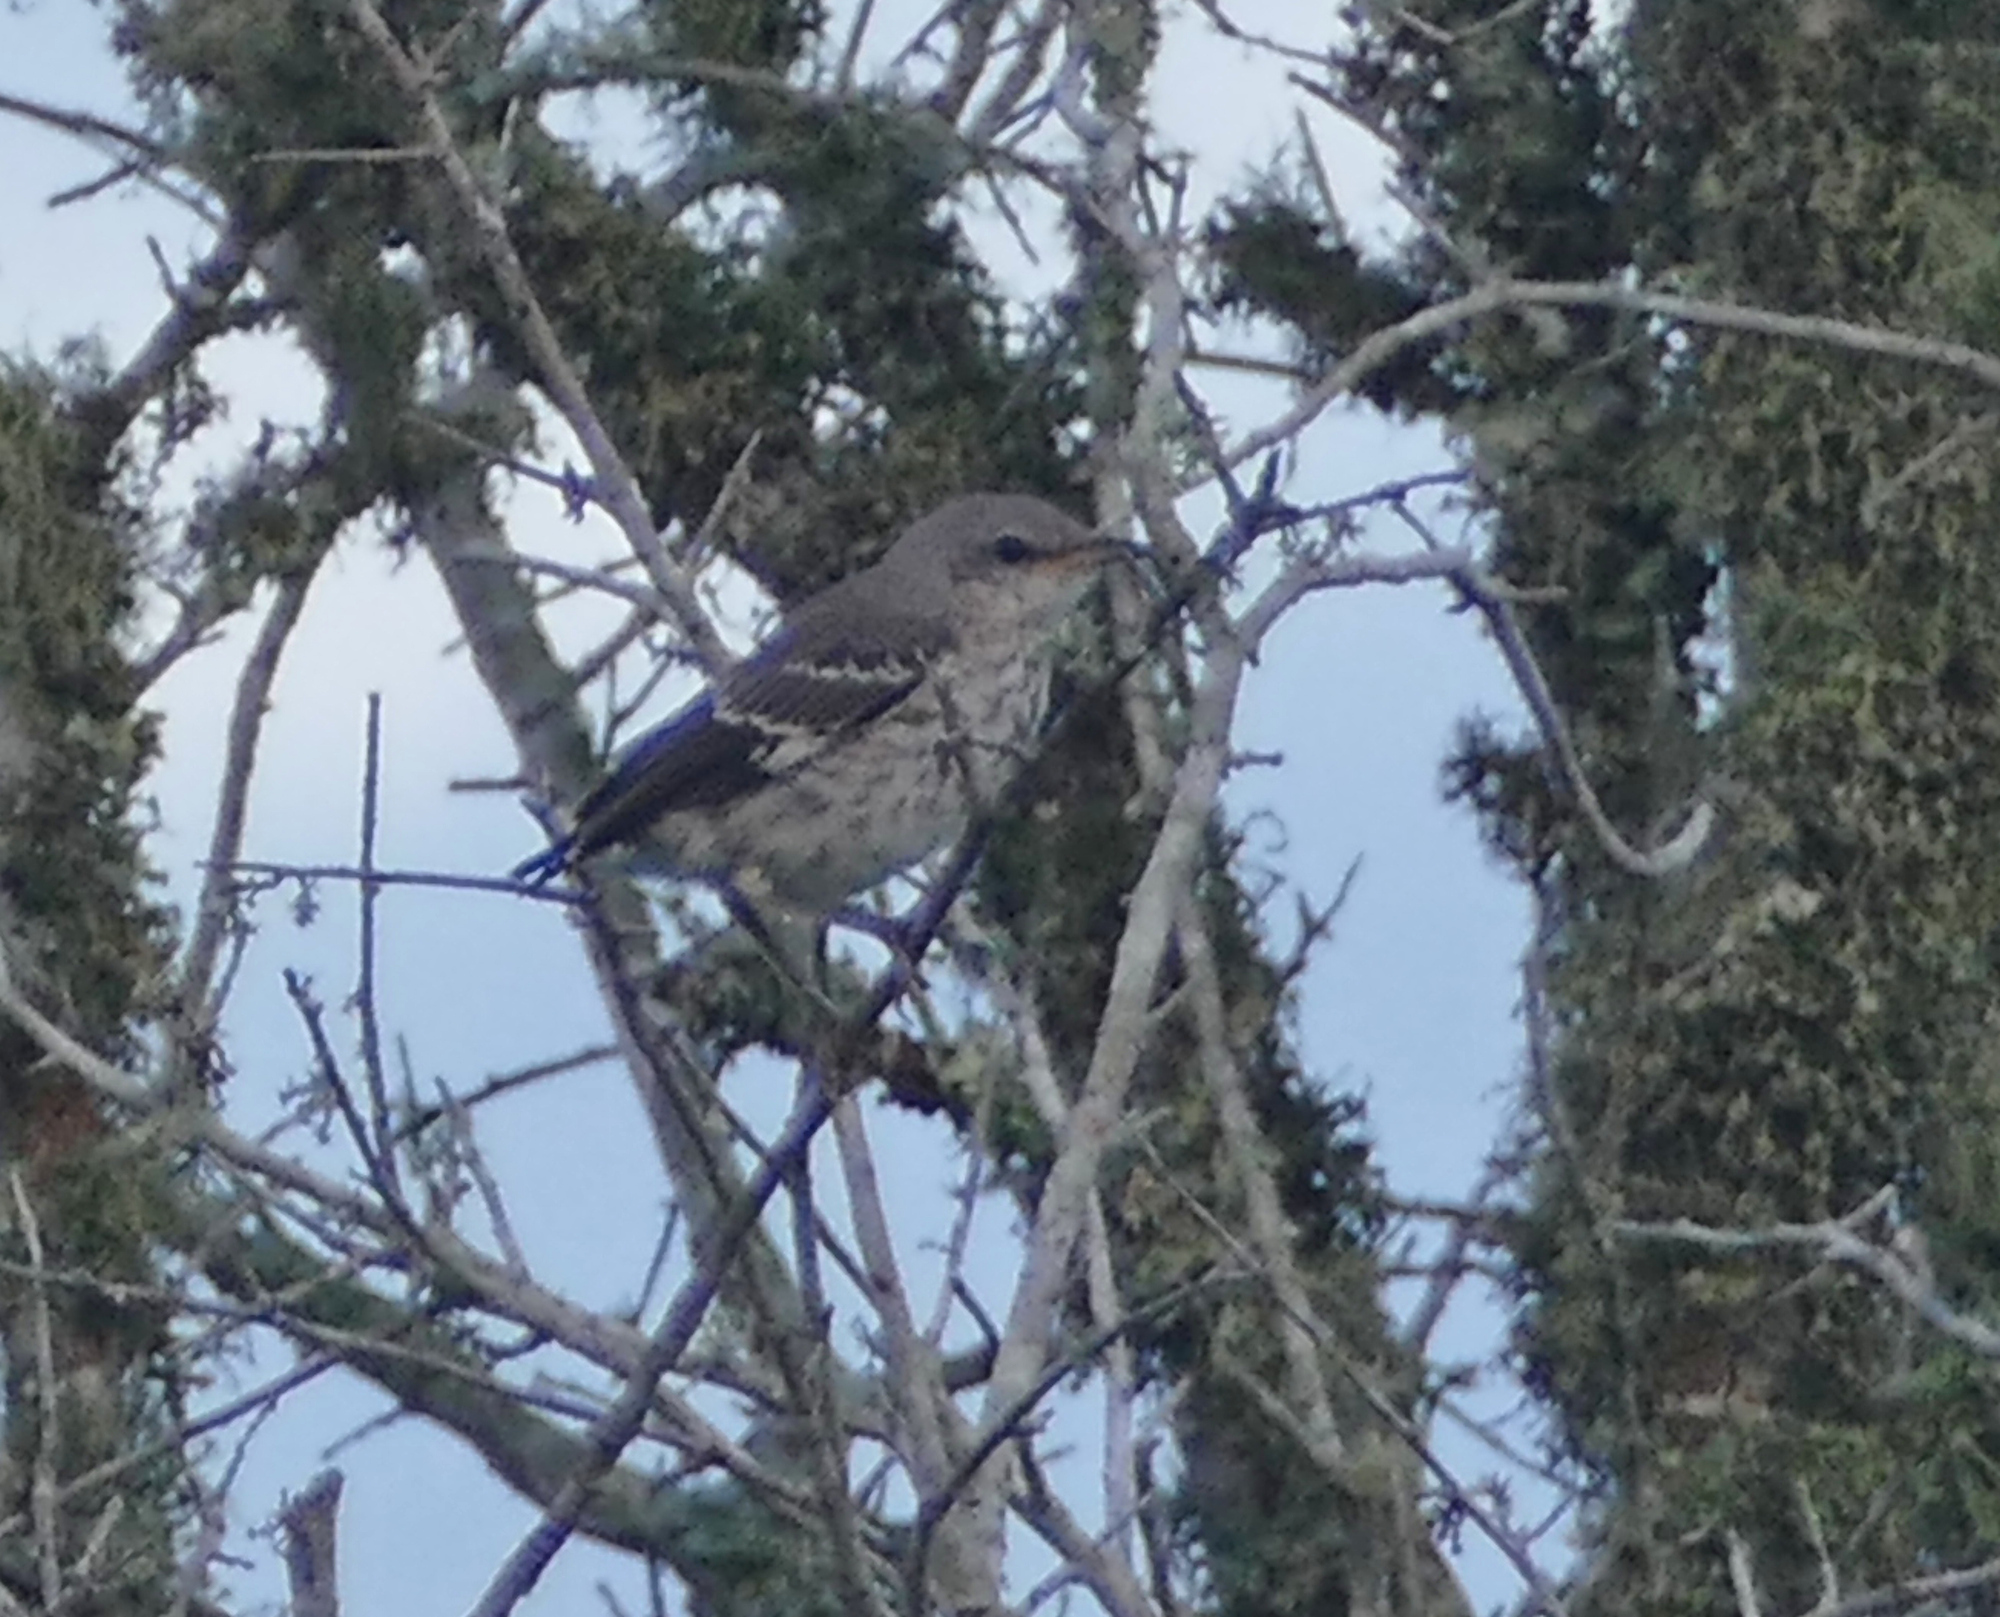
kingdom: Animalia
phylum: Chordata
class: Aves
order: Passeriformes
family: Mimidae
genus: Mimus
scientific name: Mimus polyglottos
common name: Northern mockingbird
